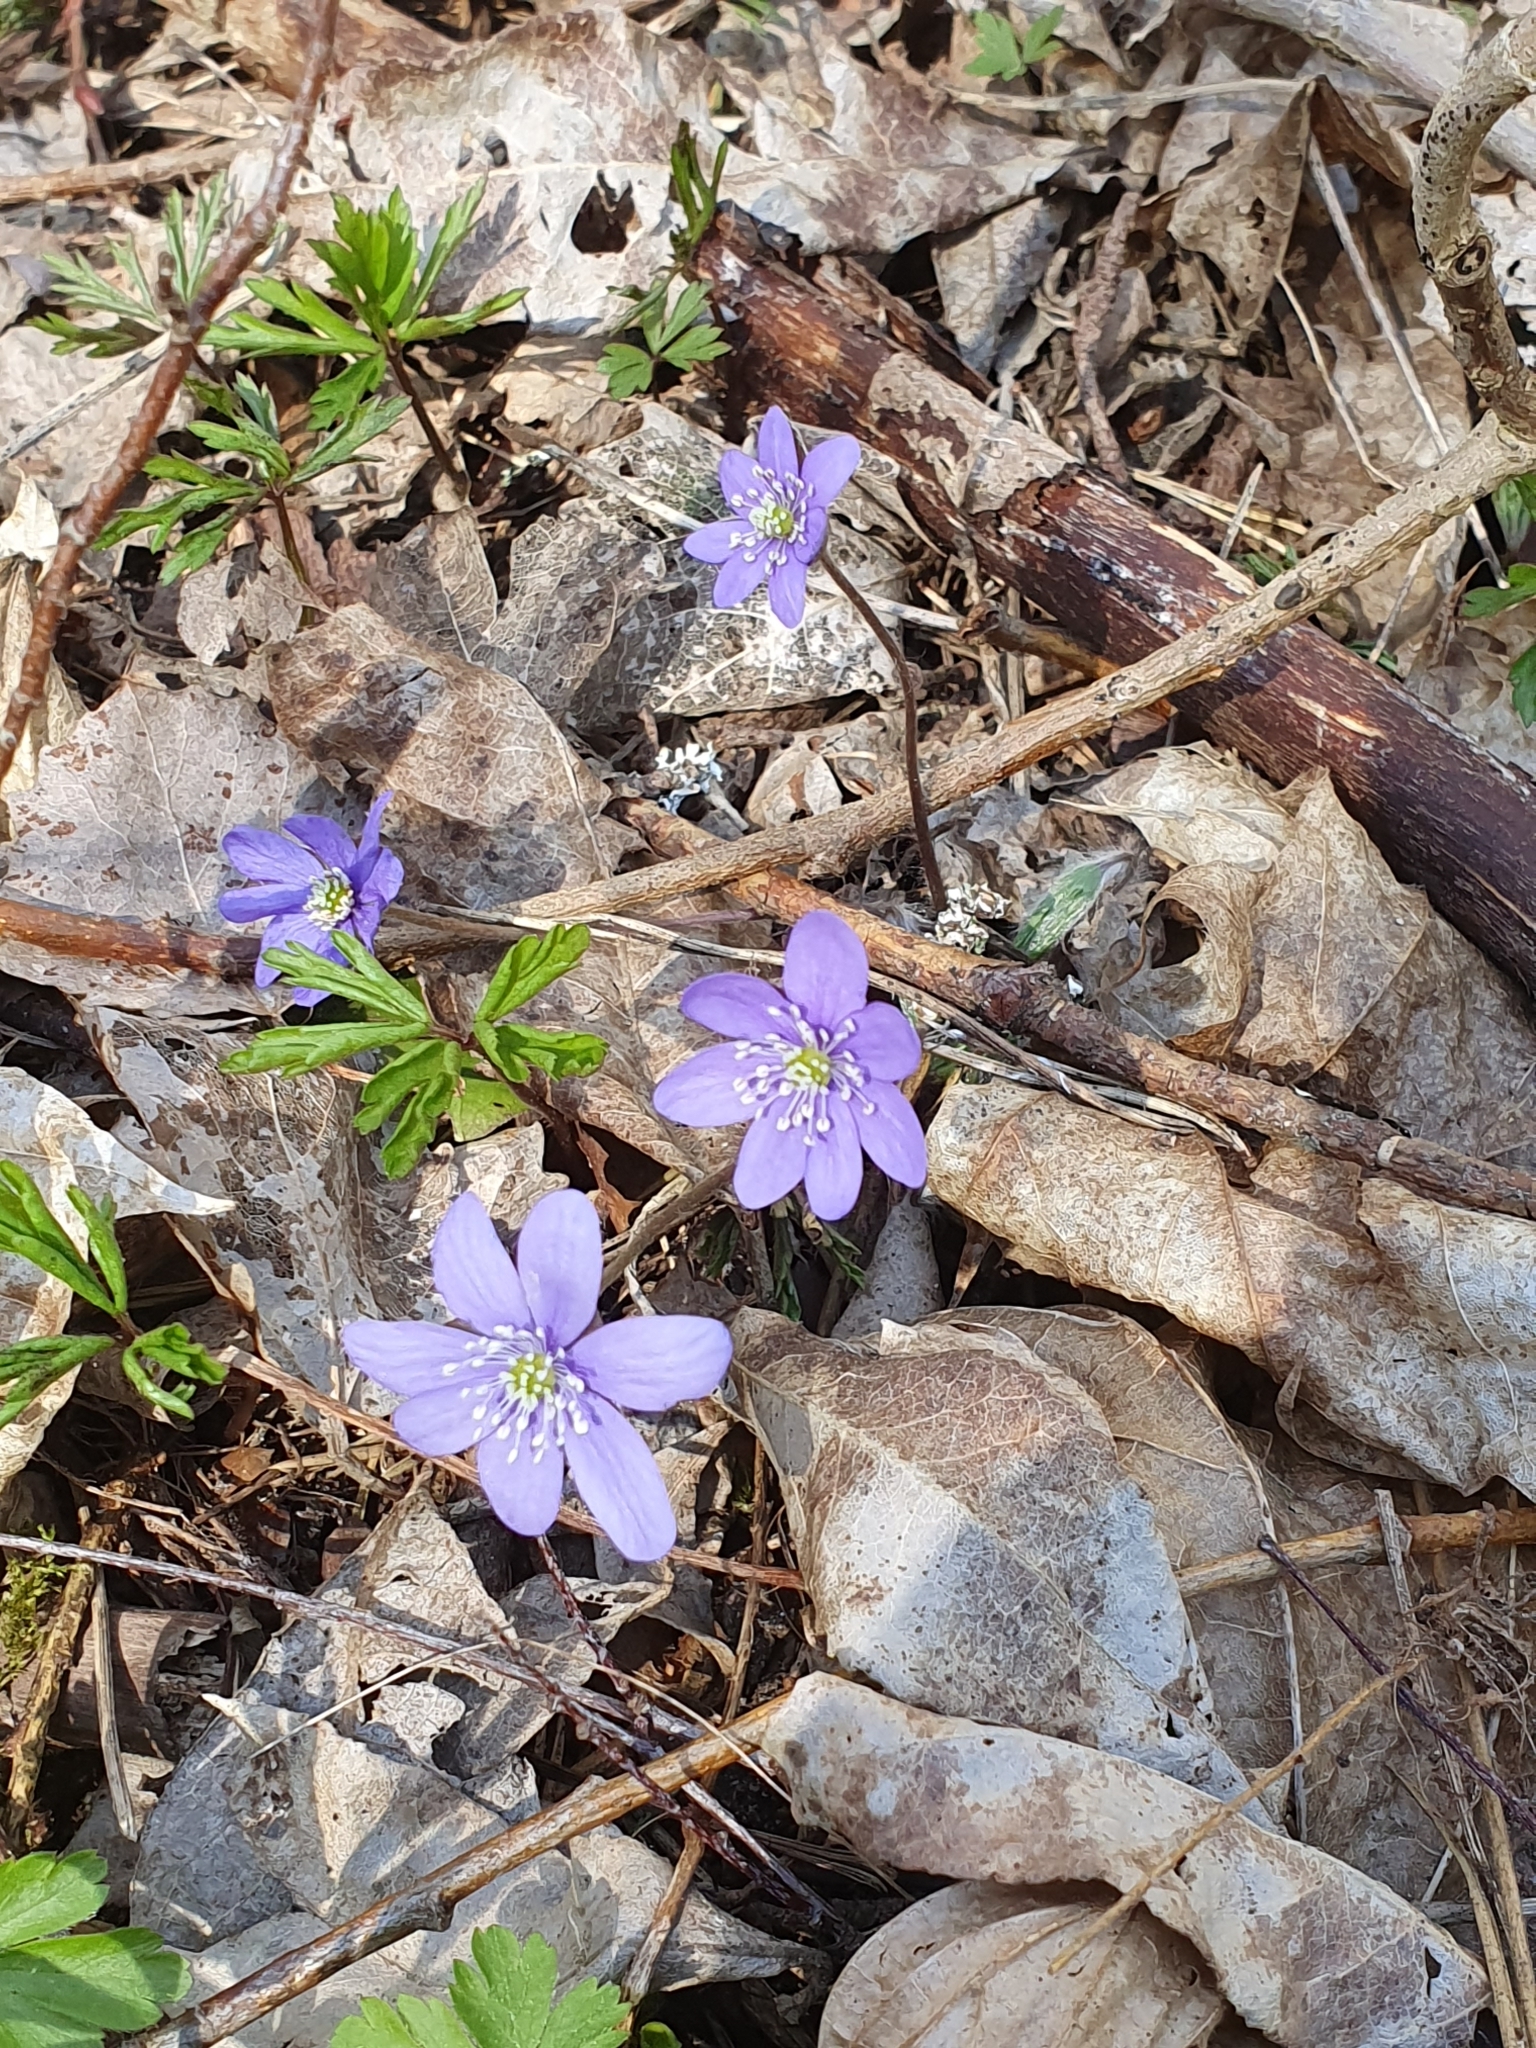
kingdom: Plantae
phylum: Tracheophyta
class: Magnoliopsida
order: Ranunculales
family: Ranunculaceae
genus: Hepatica
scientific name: Hepatica nobilis
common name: Liverleaf
